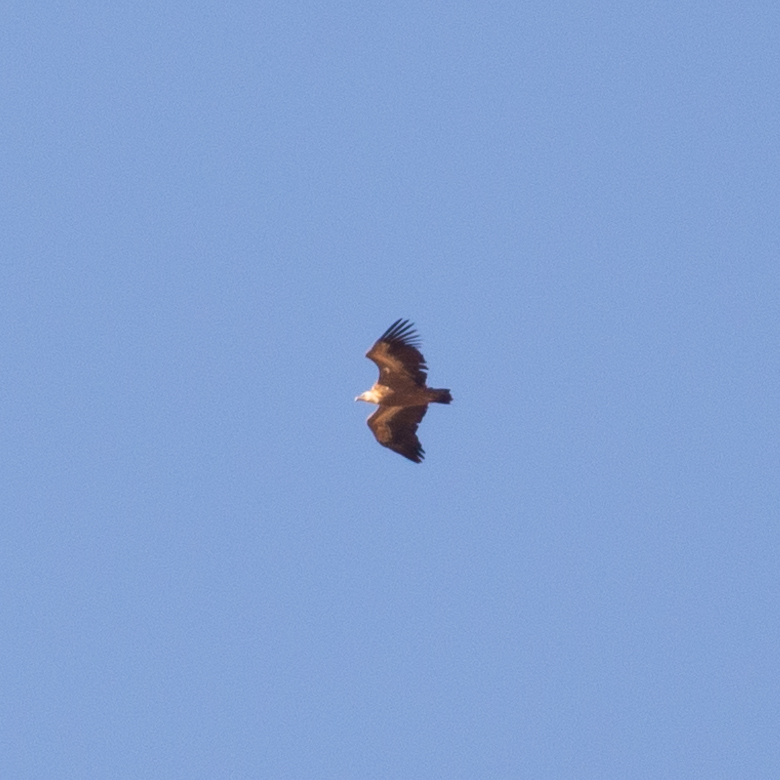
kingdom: Animalia
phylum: Chordata
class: Aves
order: Accipitriformes
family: Accipitridae
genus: Gyps
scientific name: Gyps fulvus
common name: Griffon vulture
